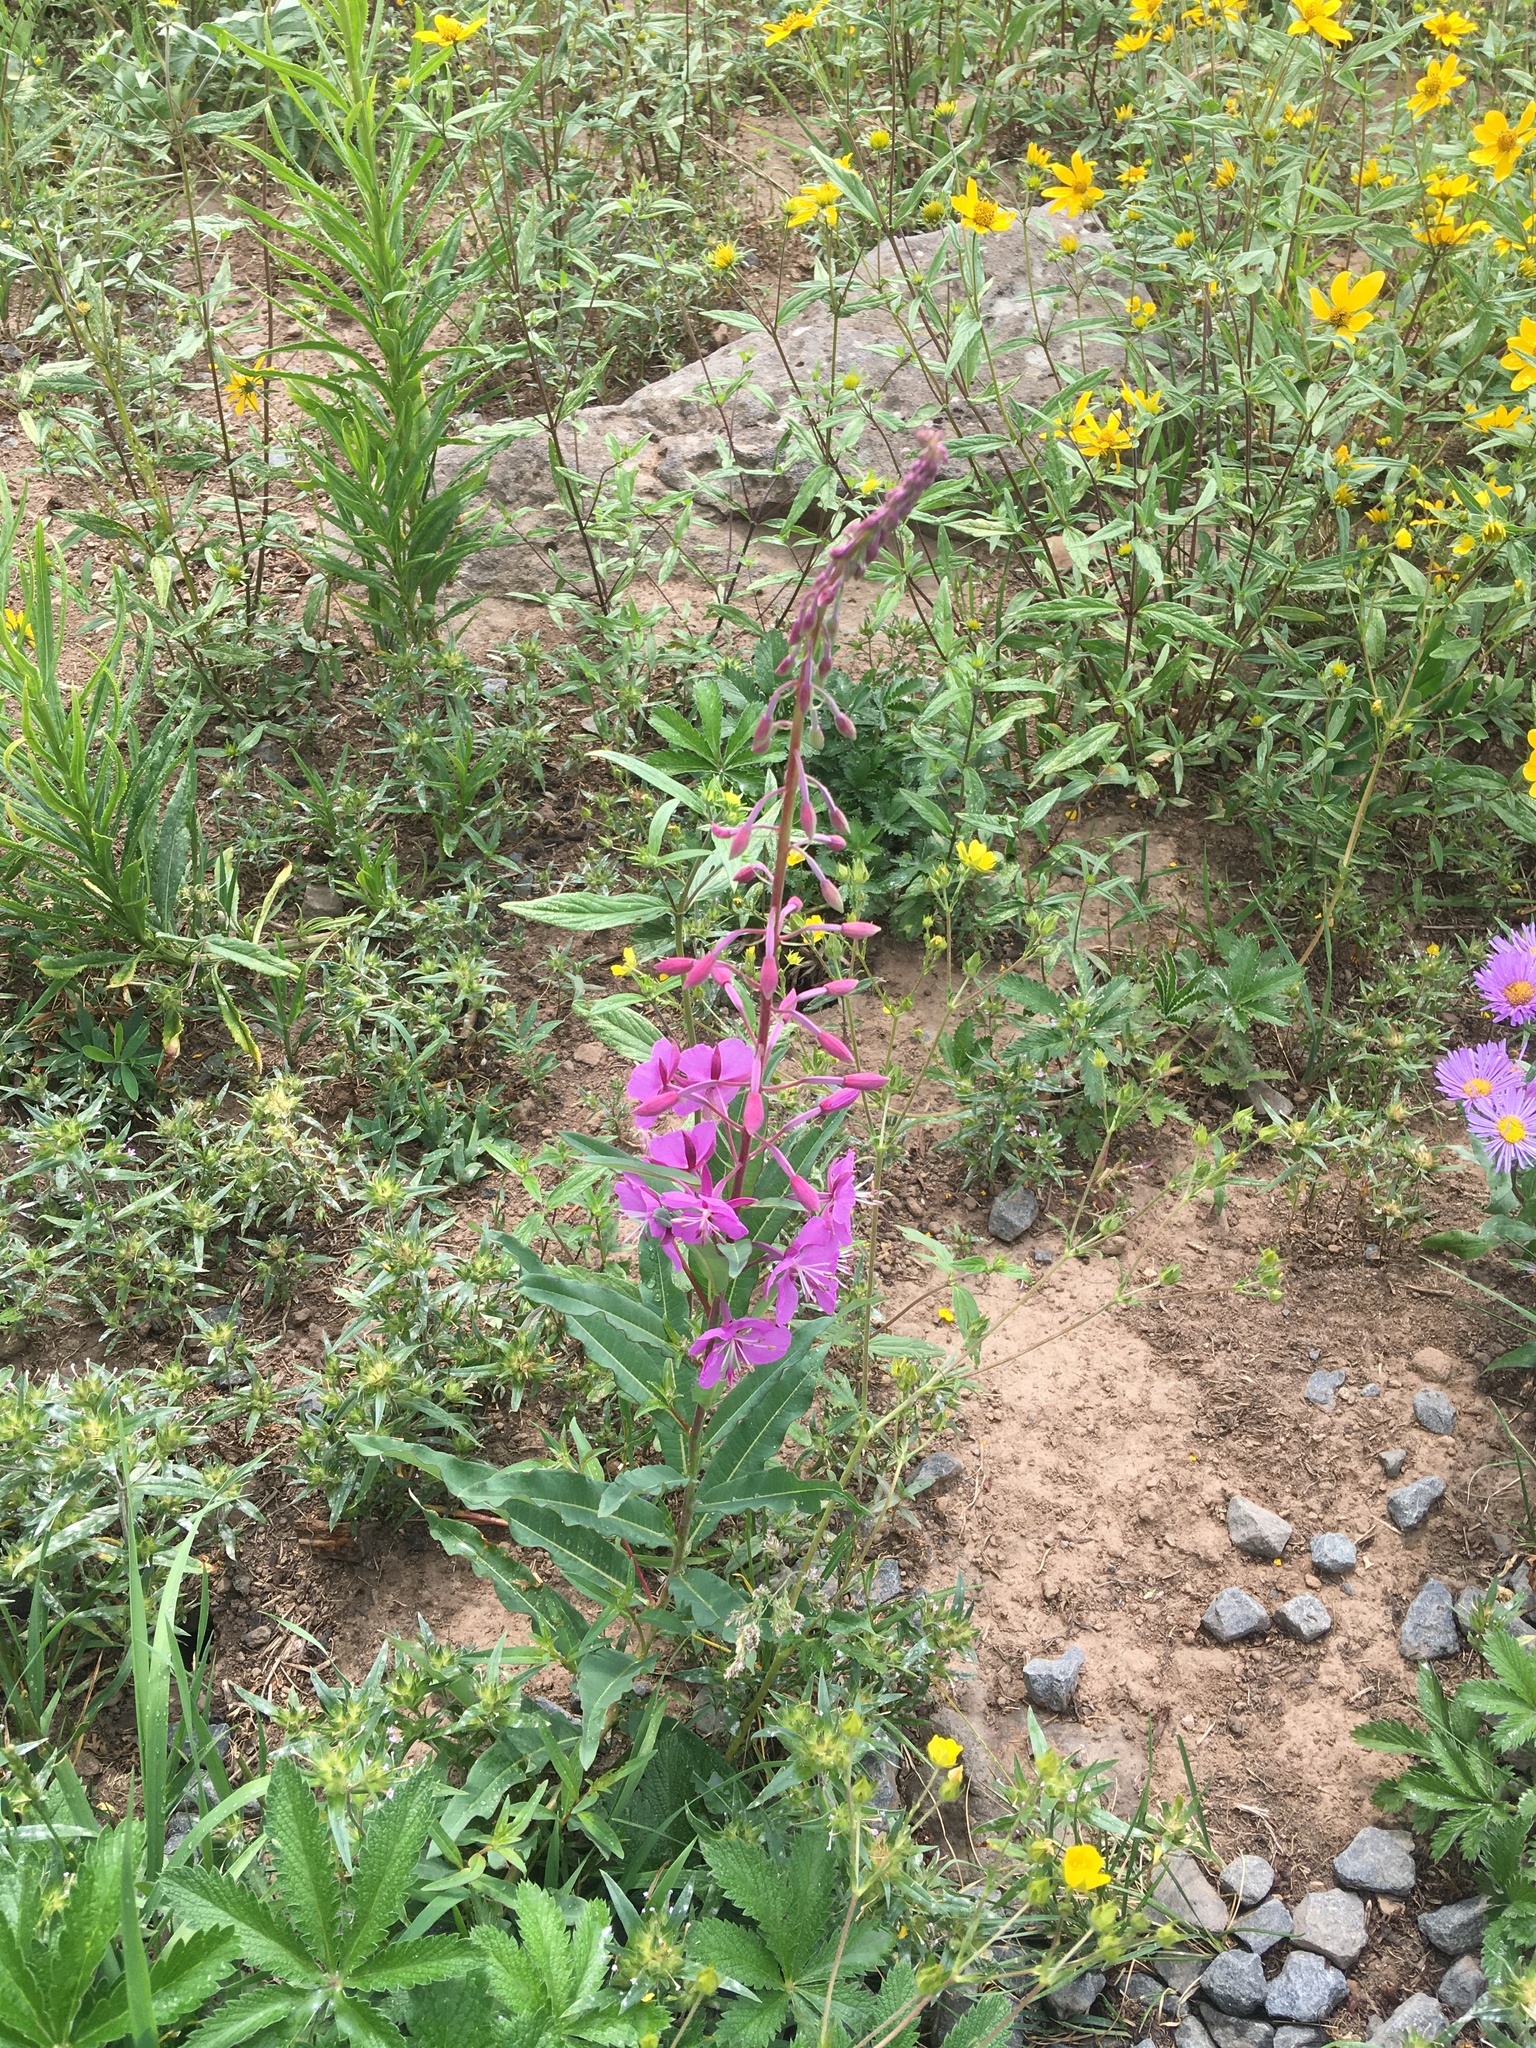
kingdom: Plantae
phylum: Tracheophyta
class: Magnoliopsida
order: Myrtales
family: Onagraceae
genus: Chamaenerion
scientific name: Chamaenerion angustifolium
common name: Fireweed
